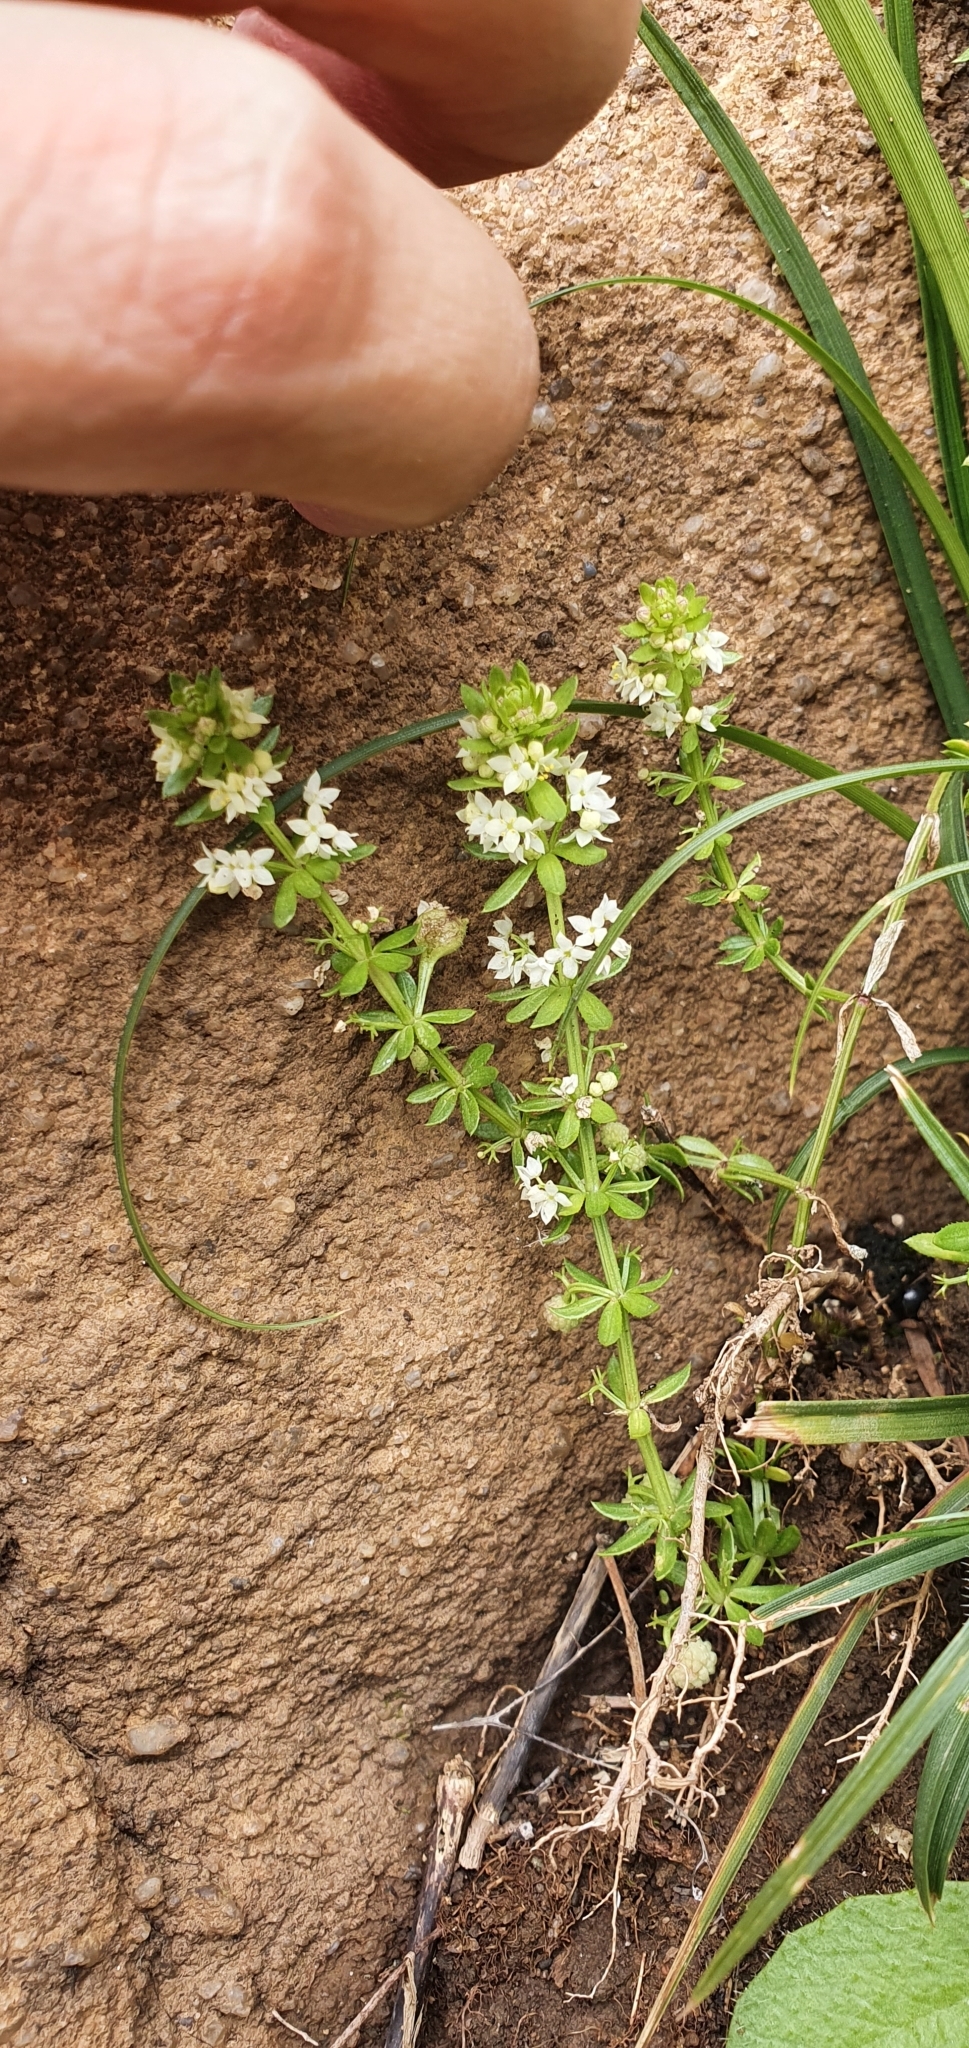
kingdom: Plantae
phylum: Tracheophyta
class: Magnoliopsida
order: Gentianales
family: Rubiaceae
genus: Galium
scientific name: Galium verrucosum
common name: Warty bedstraw
